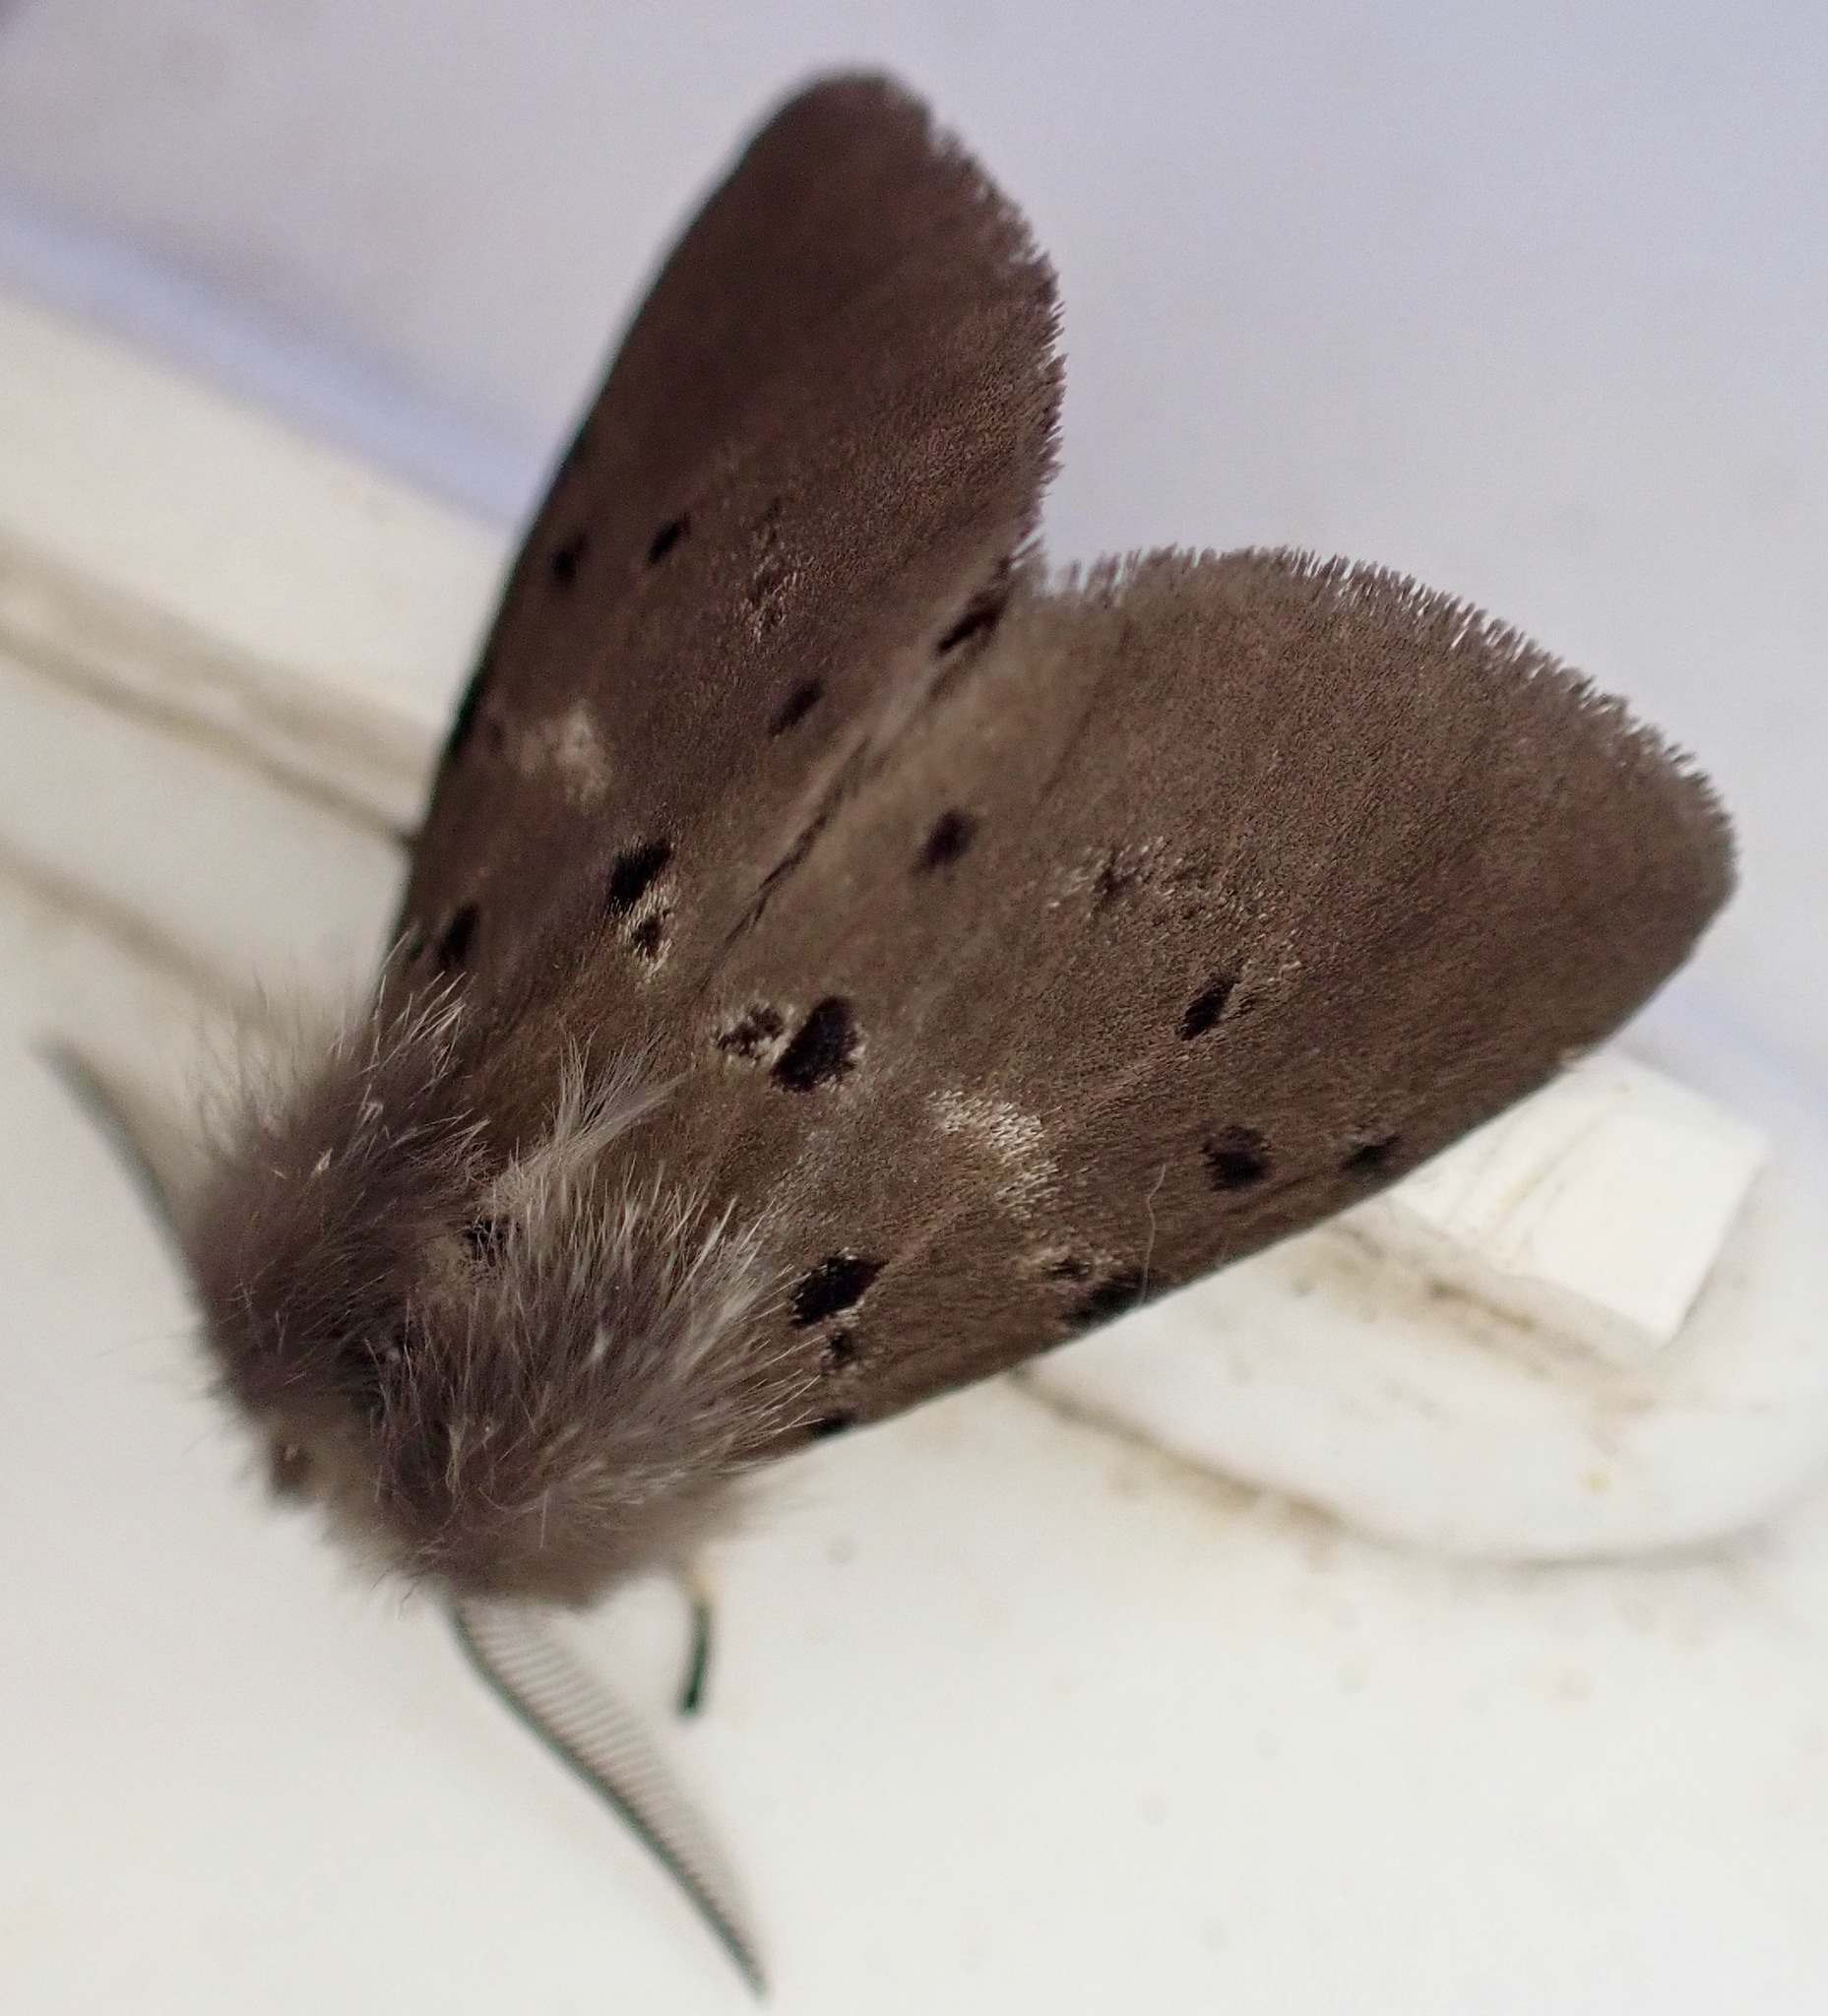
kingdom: Animalia
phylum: Arthropoda
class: Insecta
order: Lepidoptera
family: Erebidae
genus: Diaphora
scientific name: Diaphora mendica
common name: Muslin moth
